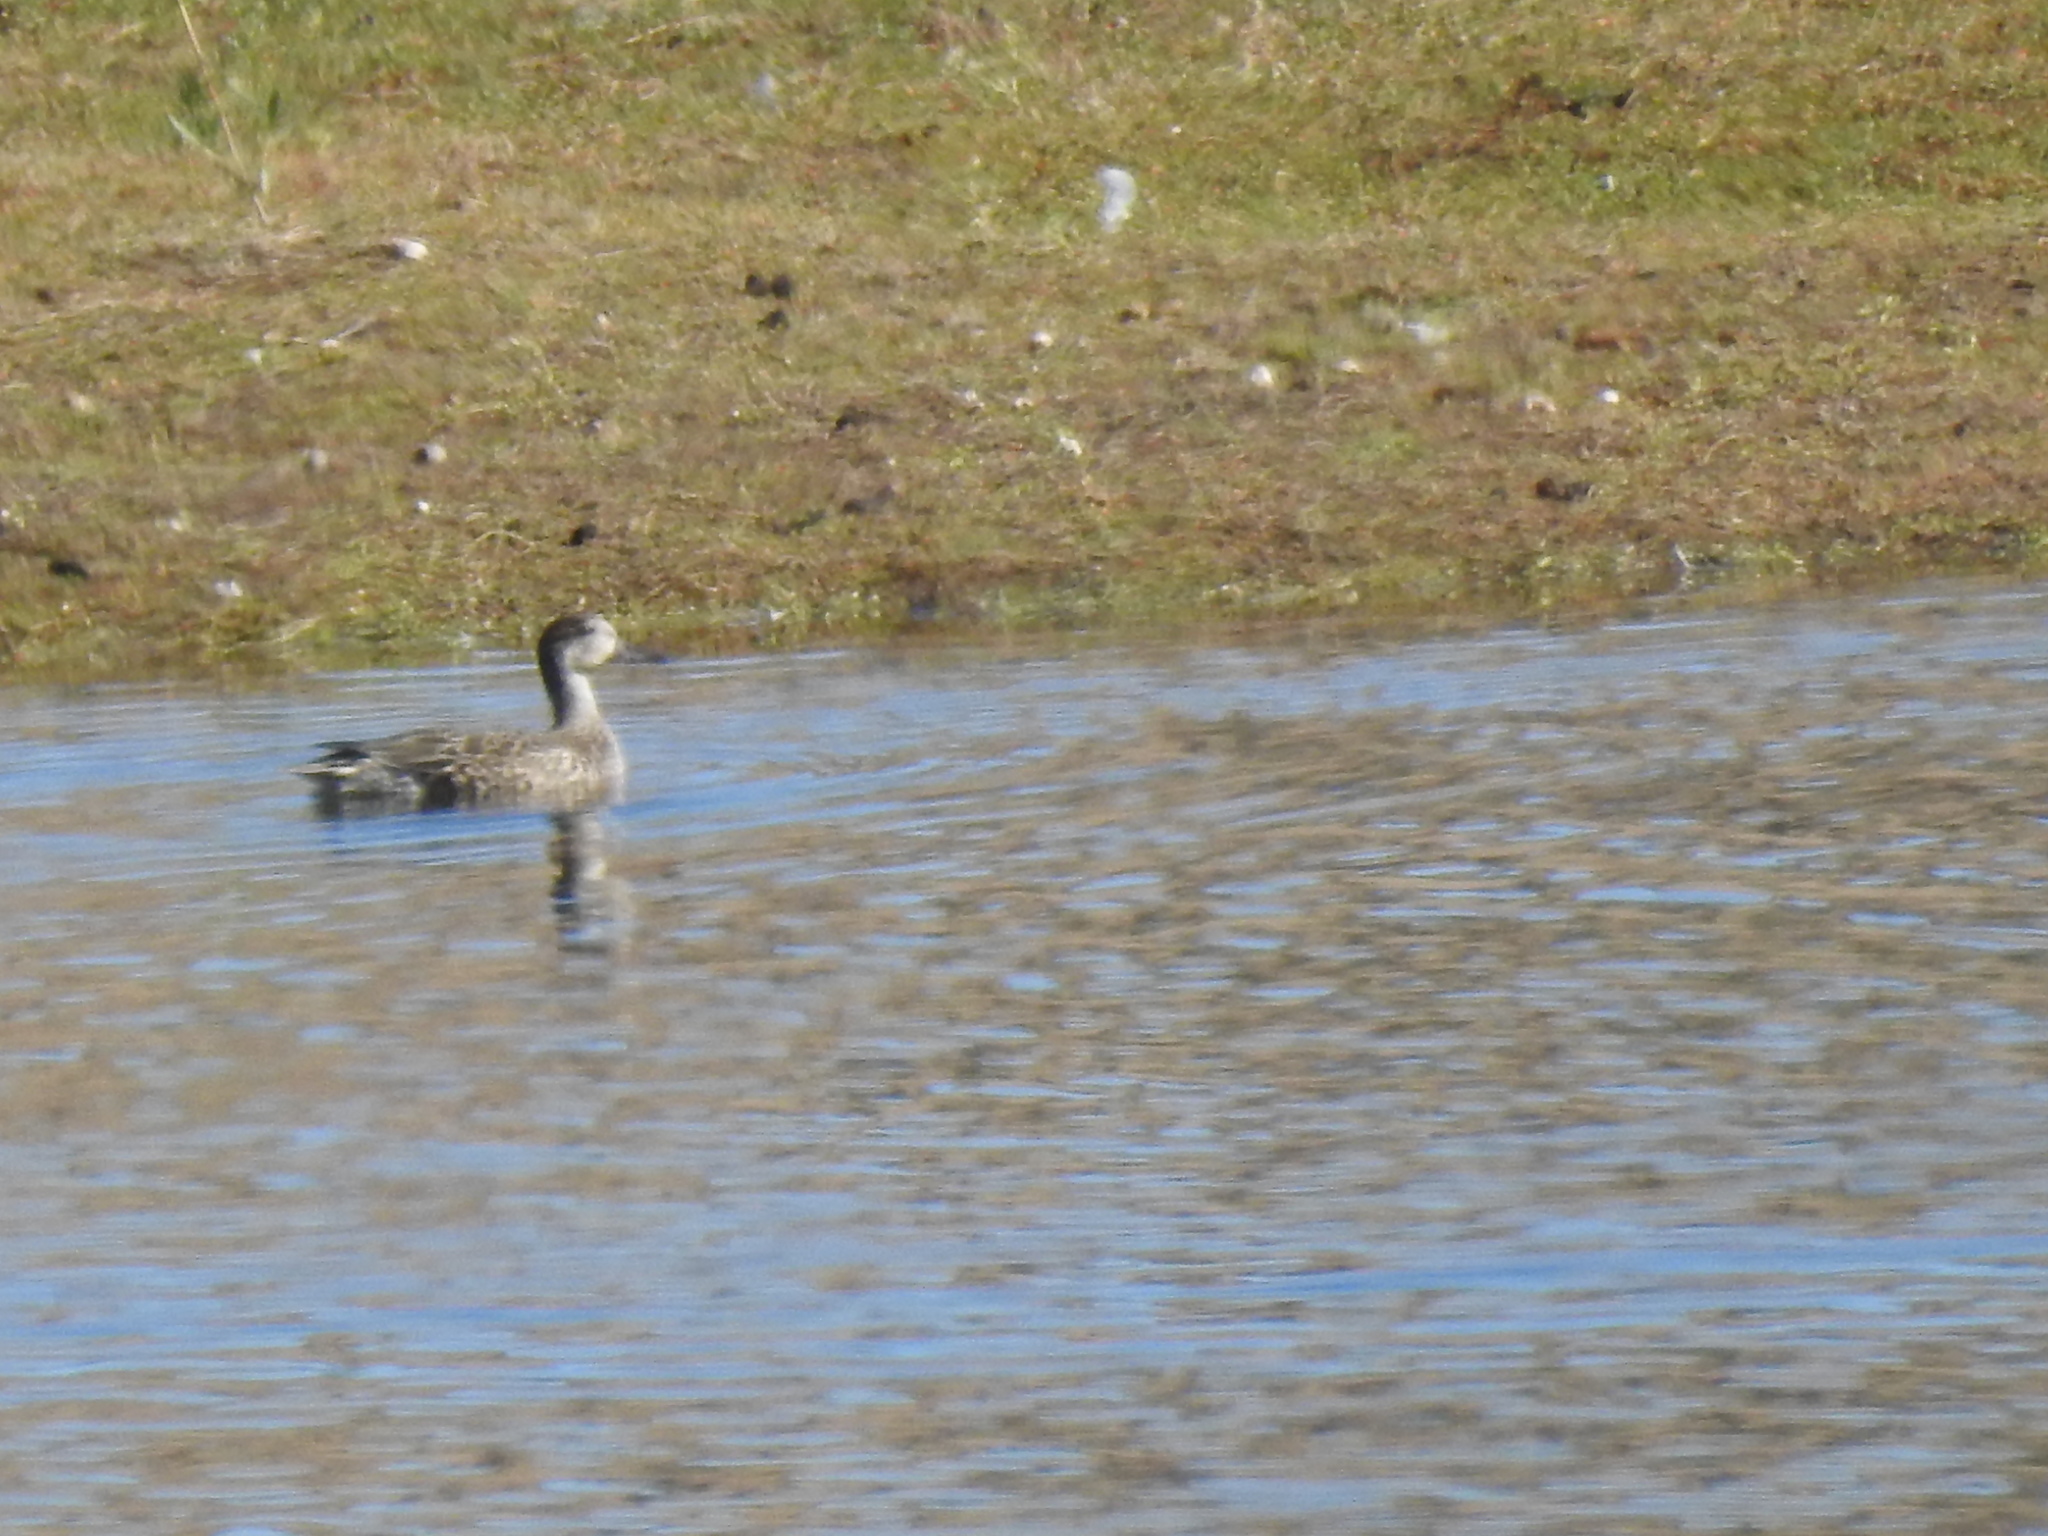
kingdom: Animalia
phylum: Chordata
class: Aves
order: Anseriformes
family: Anatidae
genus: Anas
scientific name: Anas crecca
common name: Eurasian teal
